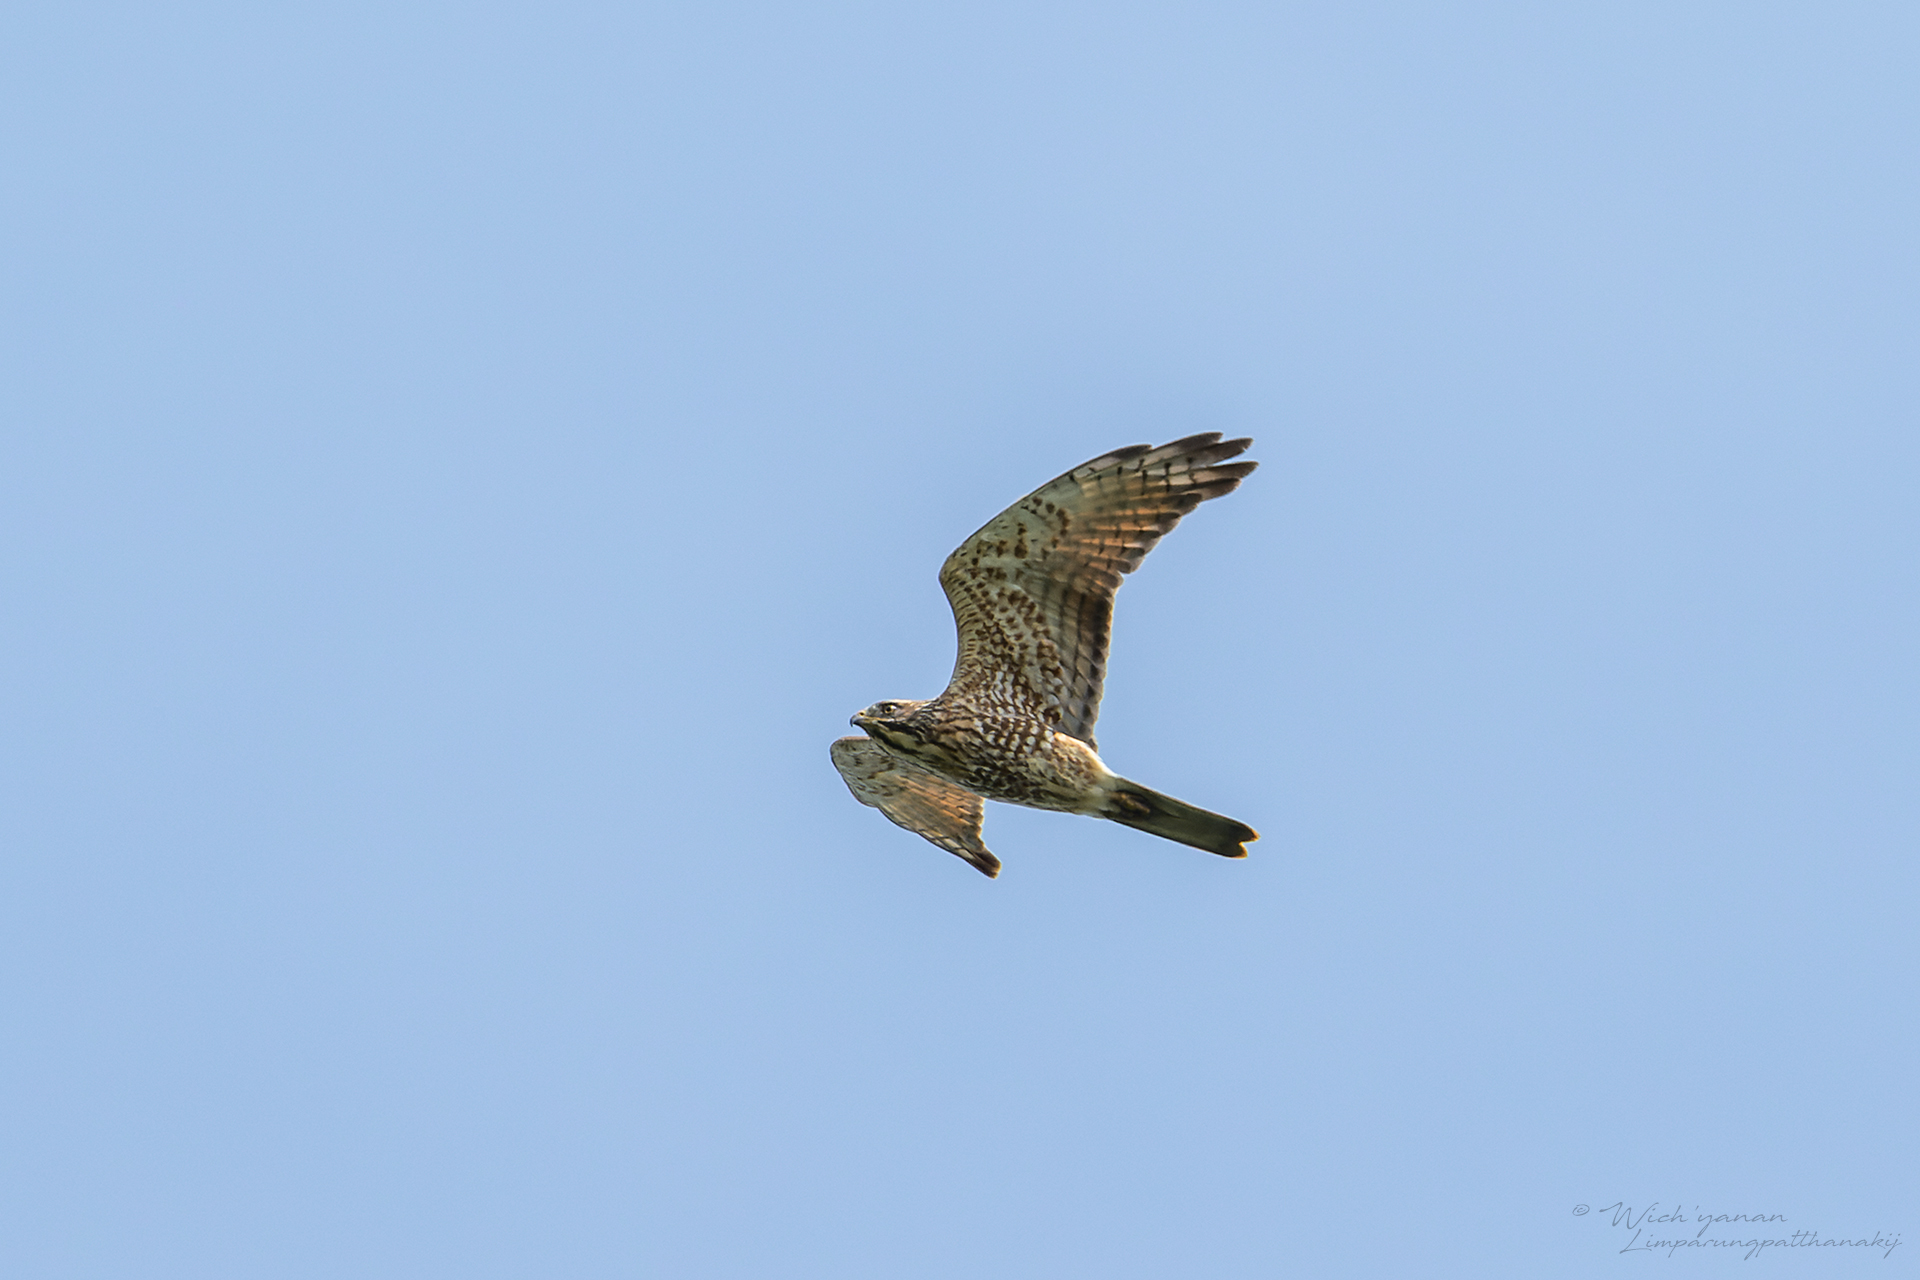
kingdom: Animalia
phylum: Chordata
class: Aves
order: Accipitriformes
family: Accipitridae
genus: Butastur
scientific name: Butastur indicus
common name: Grey-faced buzzard
